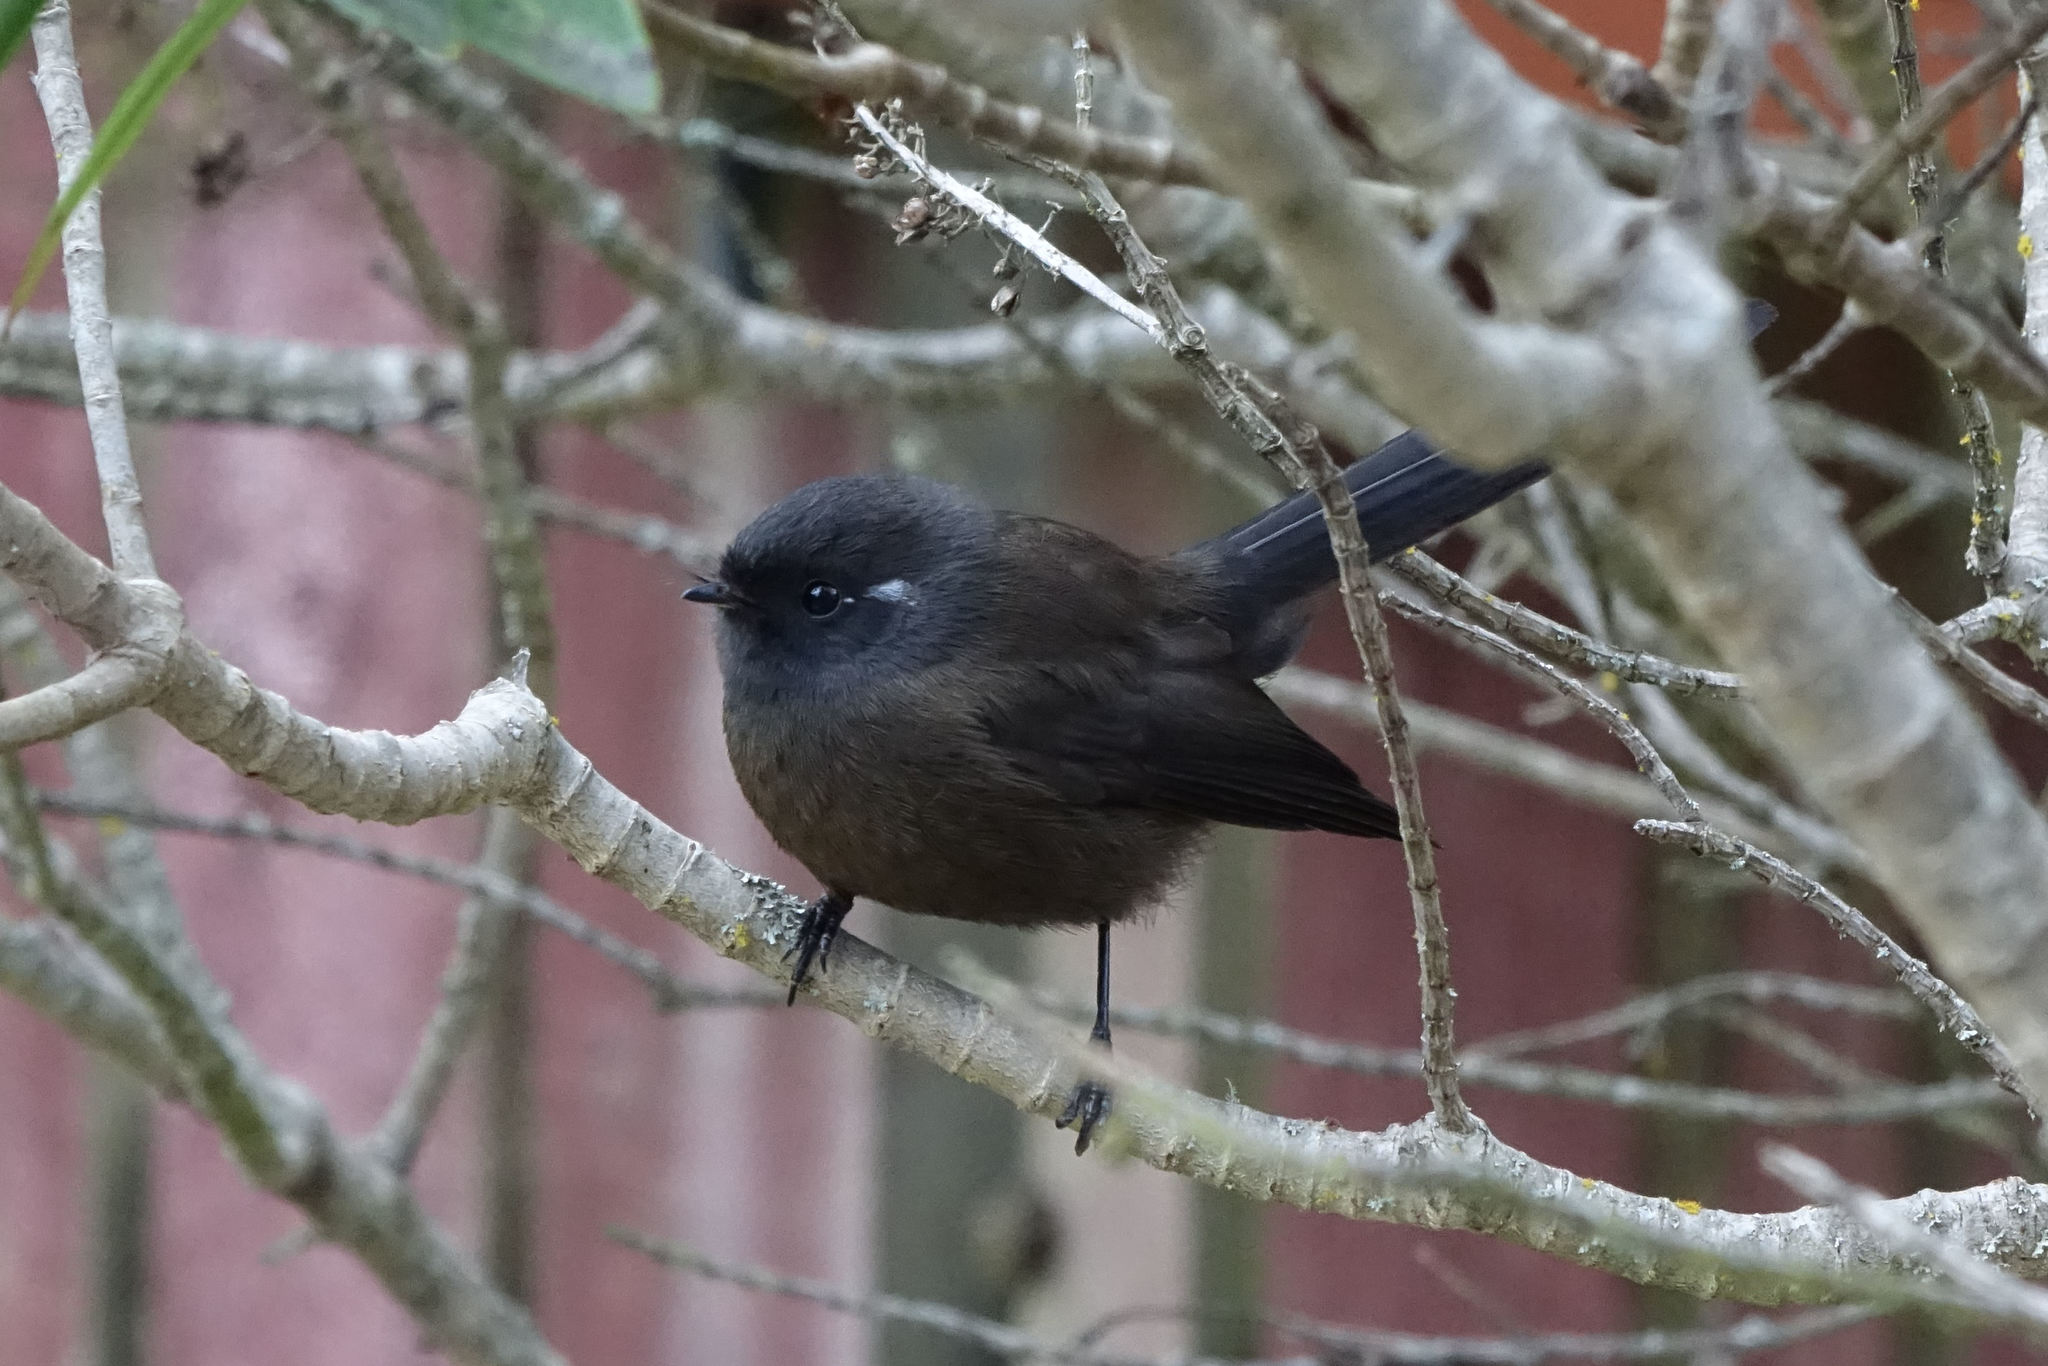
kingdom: Animalia
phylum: Chordata
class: Aves
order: Passeriformes
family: Rhipiduridae
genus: Rhipidura
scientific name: Rhipidura fuliginosa
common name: New zealand fantail
